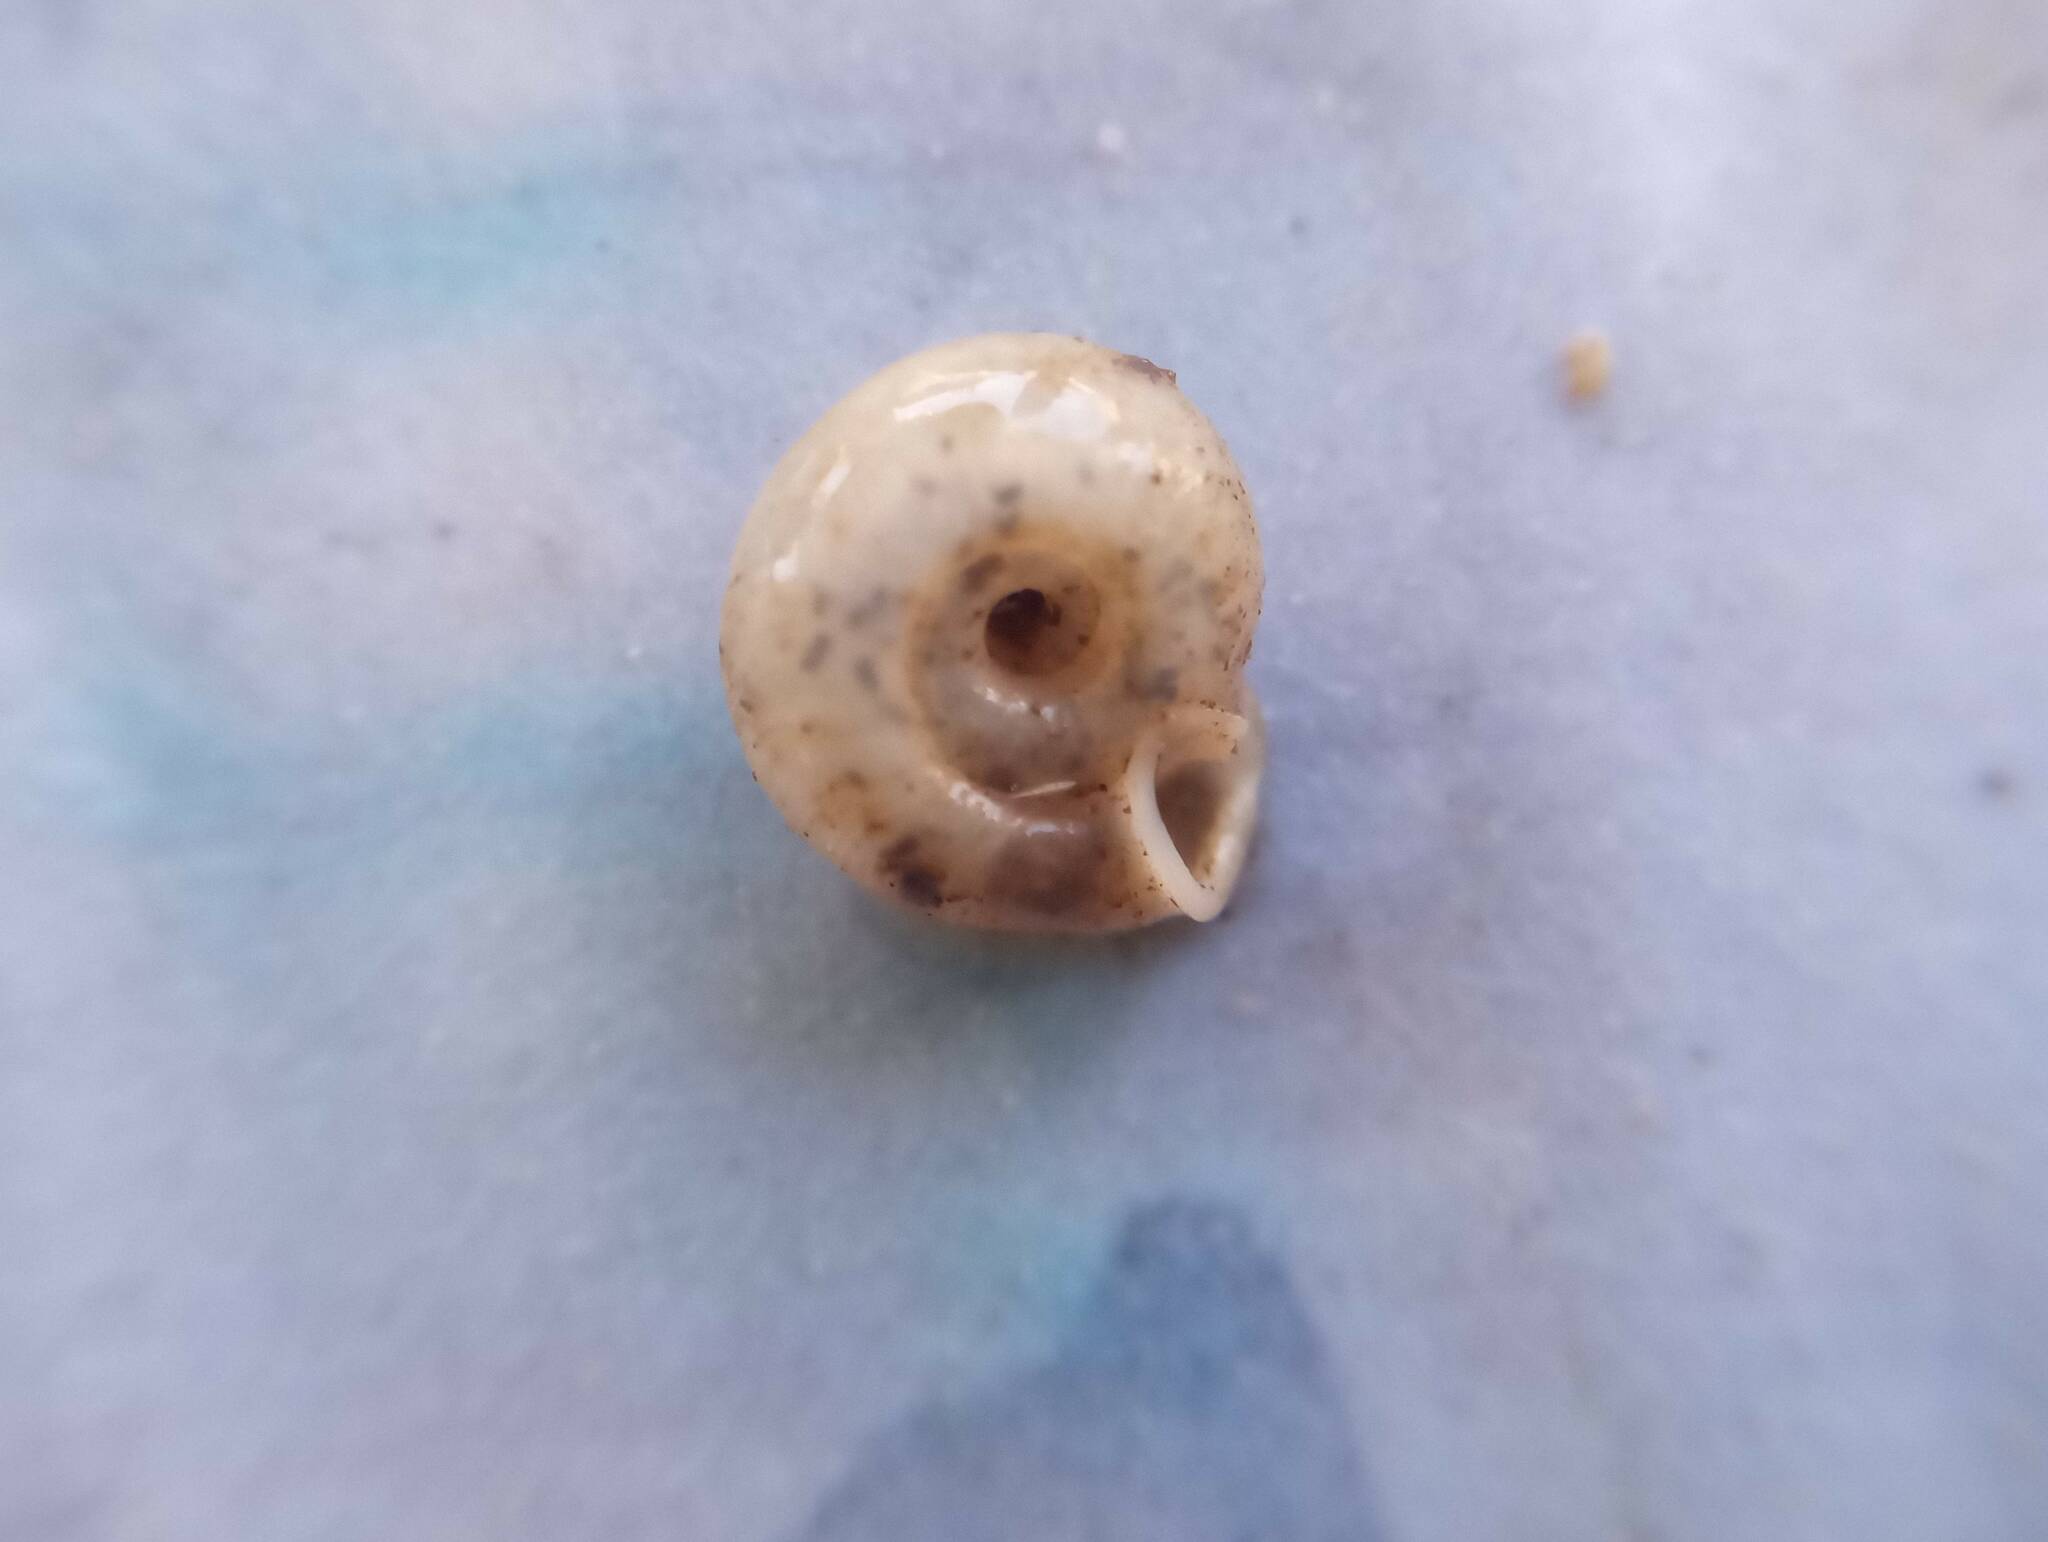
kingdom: Animalia
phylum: Mollusca
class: Gastropoda
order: Stylommatophora
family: Polygyridae
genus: Polygyra
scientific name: Polygyra cereolus
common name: Southern flatcone snail
